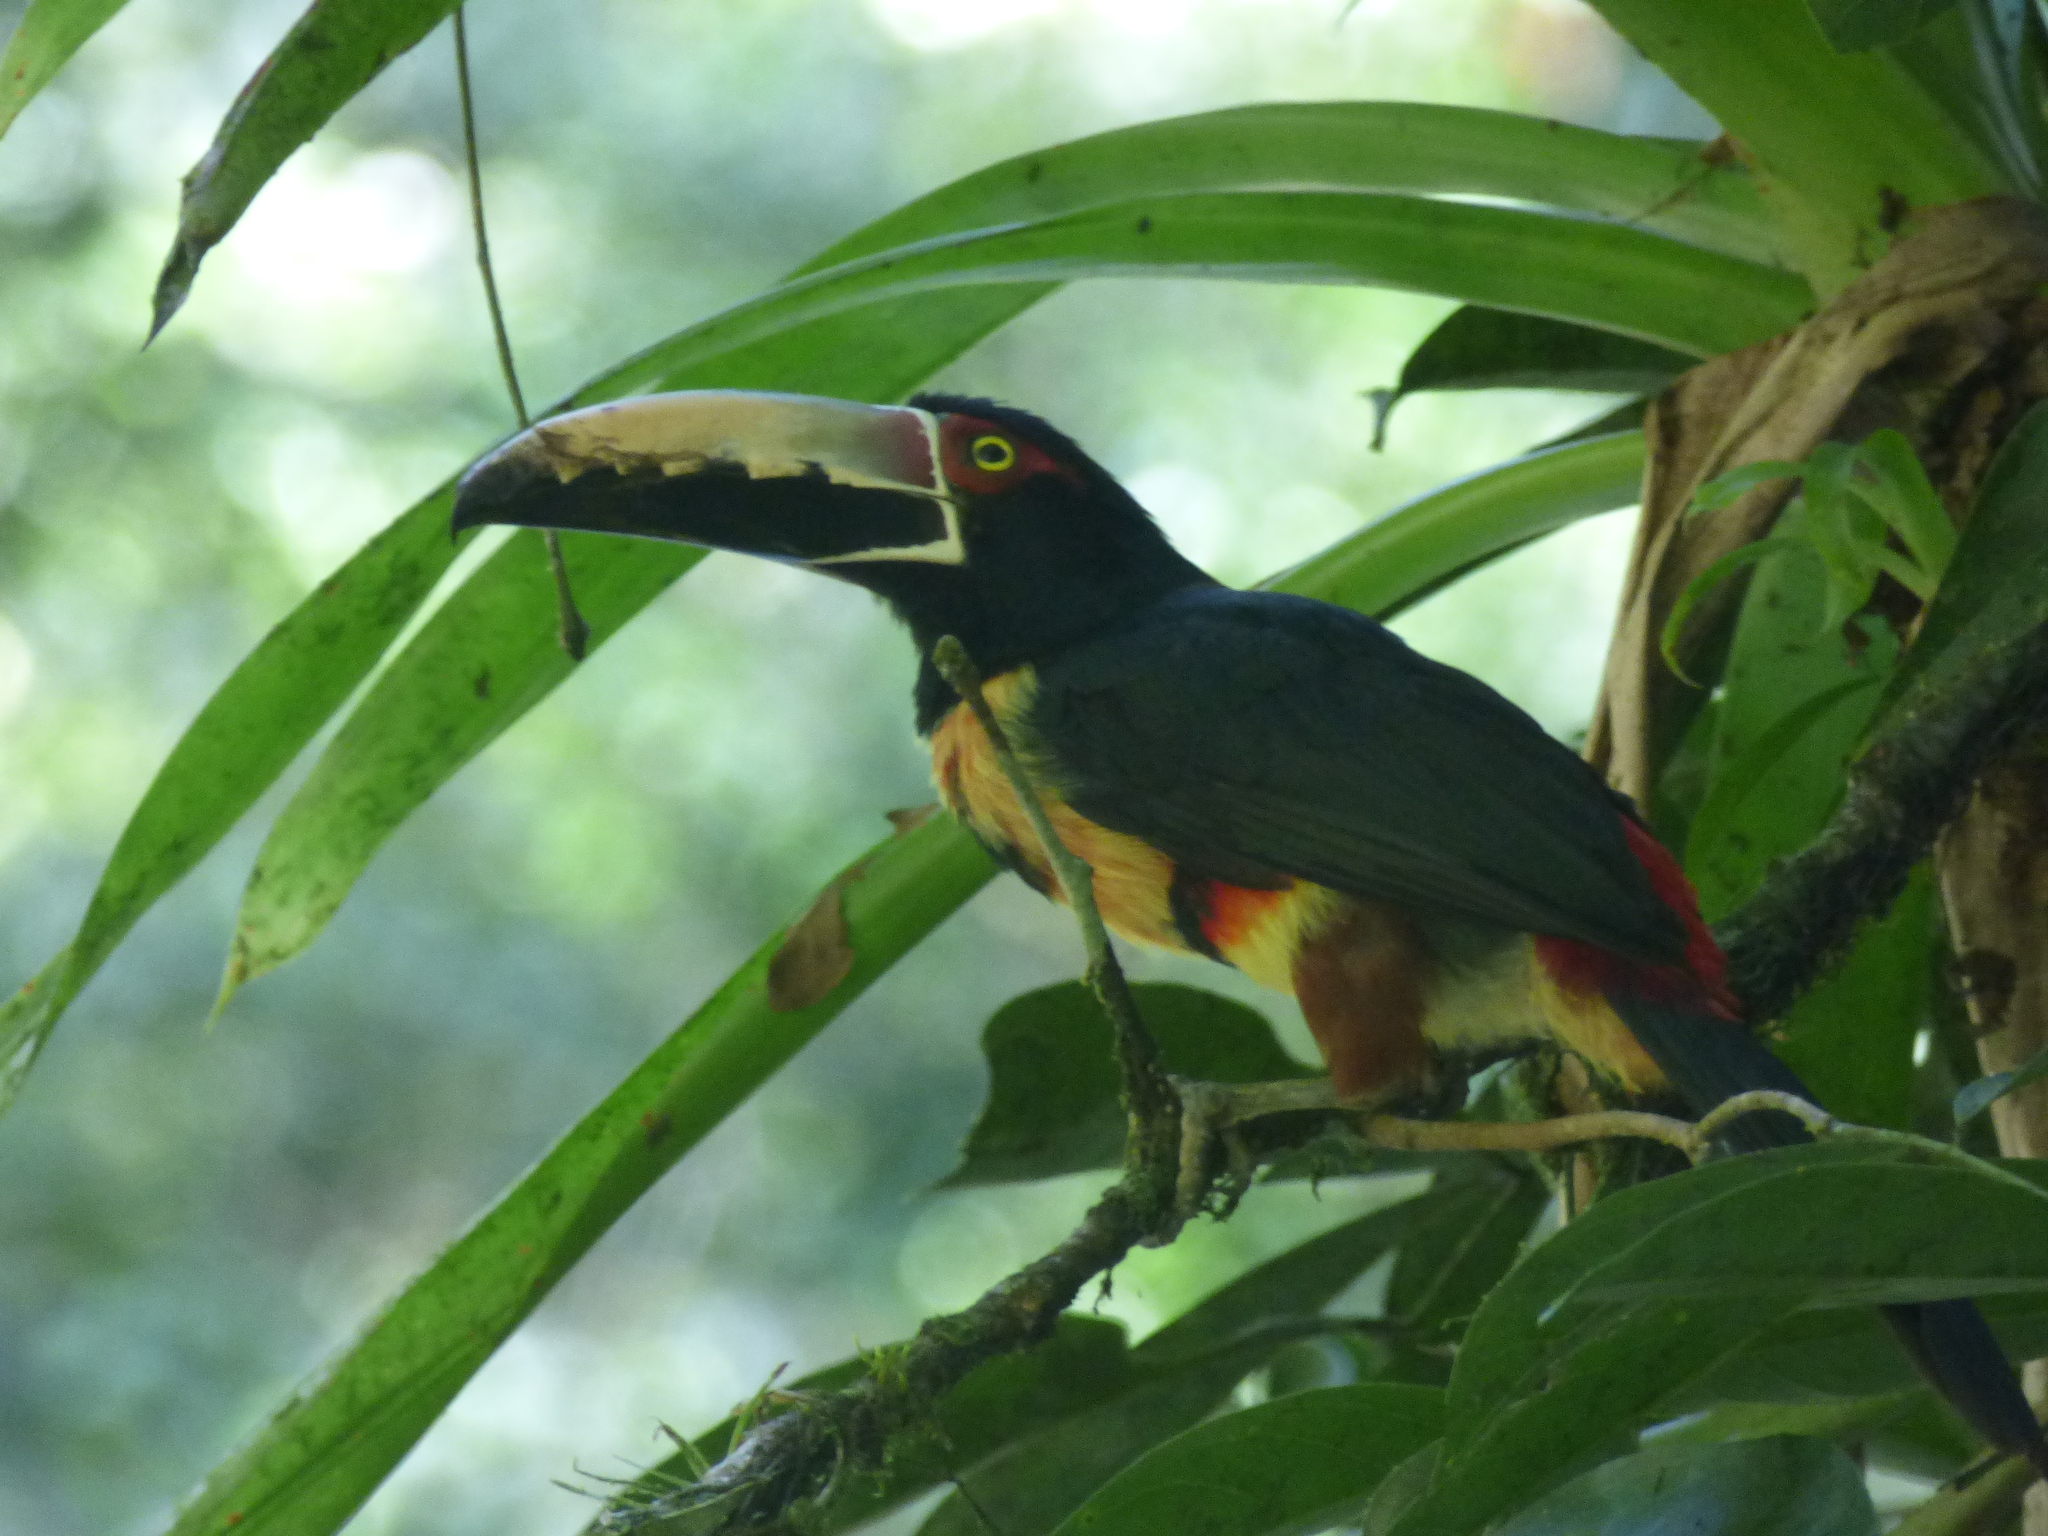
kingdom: Animalia
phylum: Chordata
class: Aves
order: Piciformes
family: Ramphastidae
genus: Pteroglossus
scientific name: Pteroglossus torquatus
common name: Collared aracari
